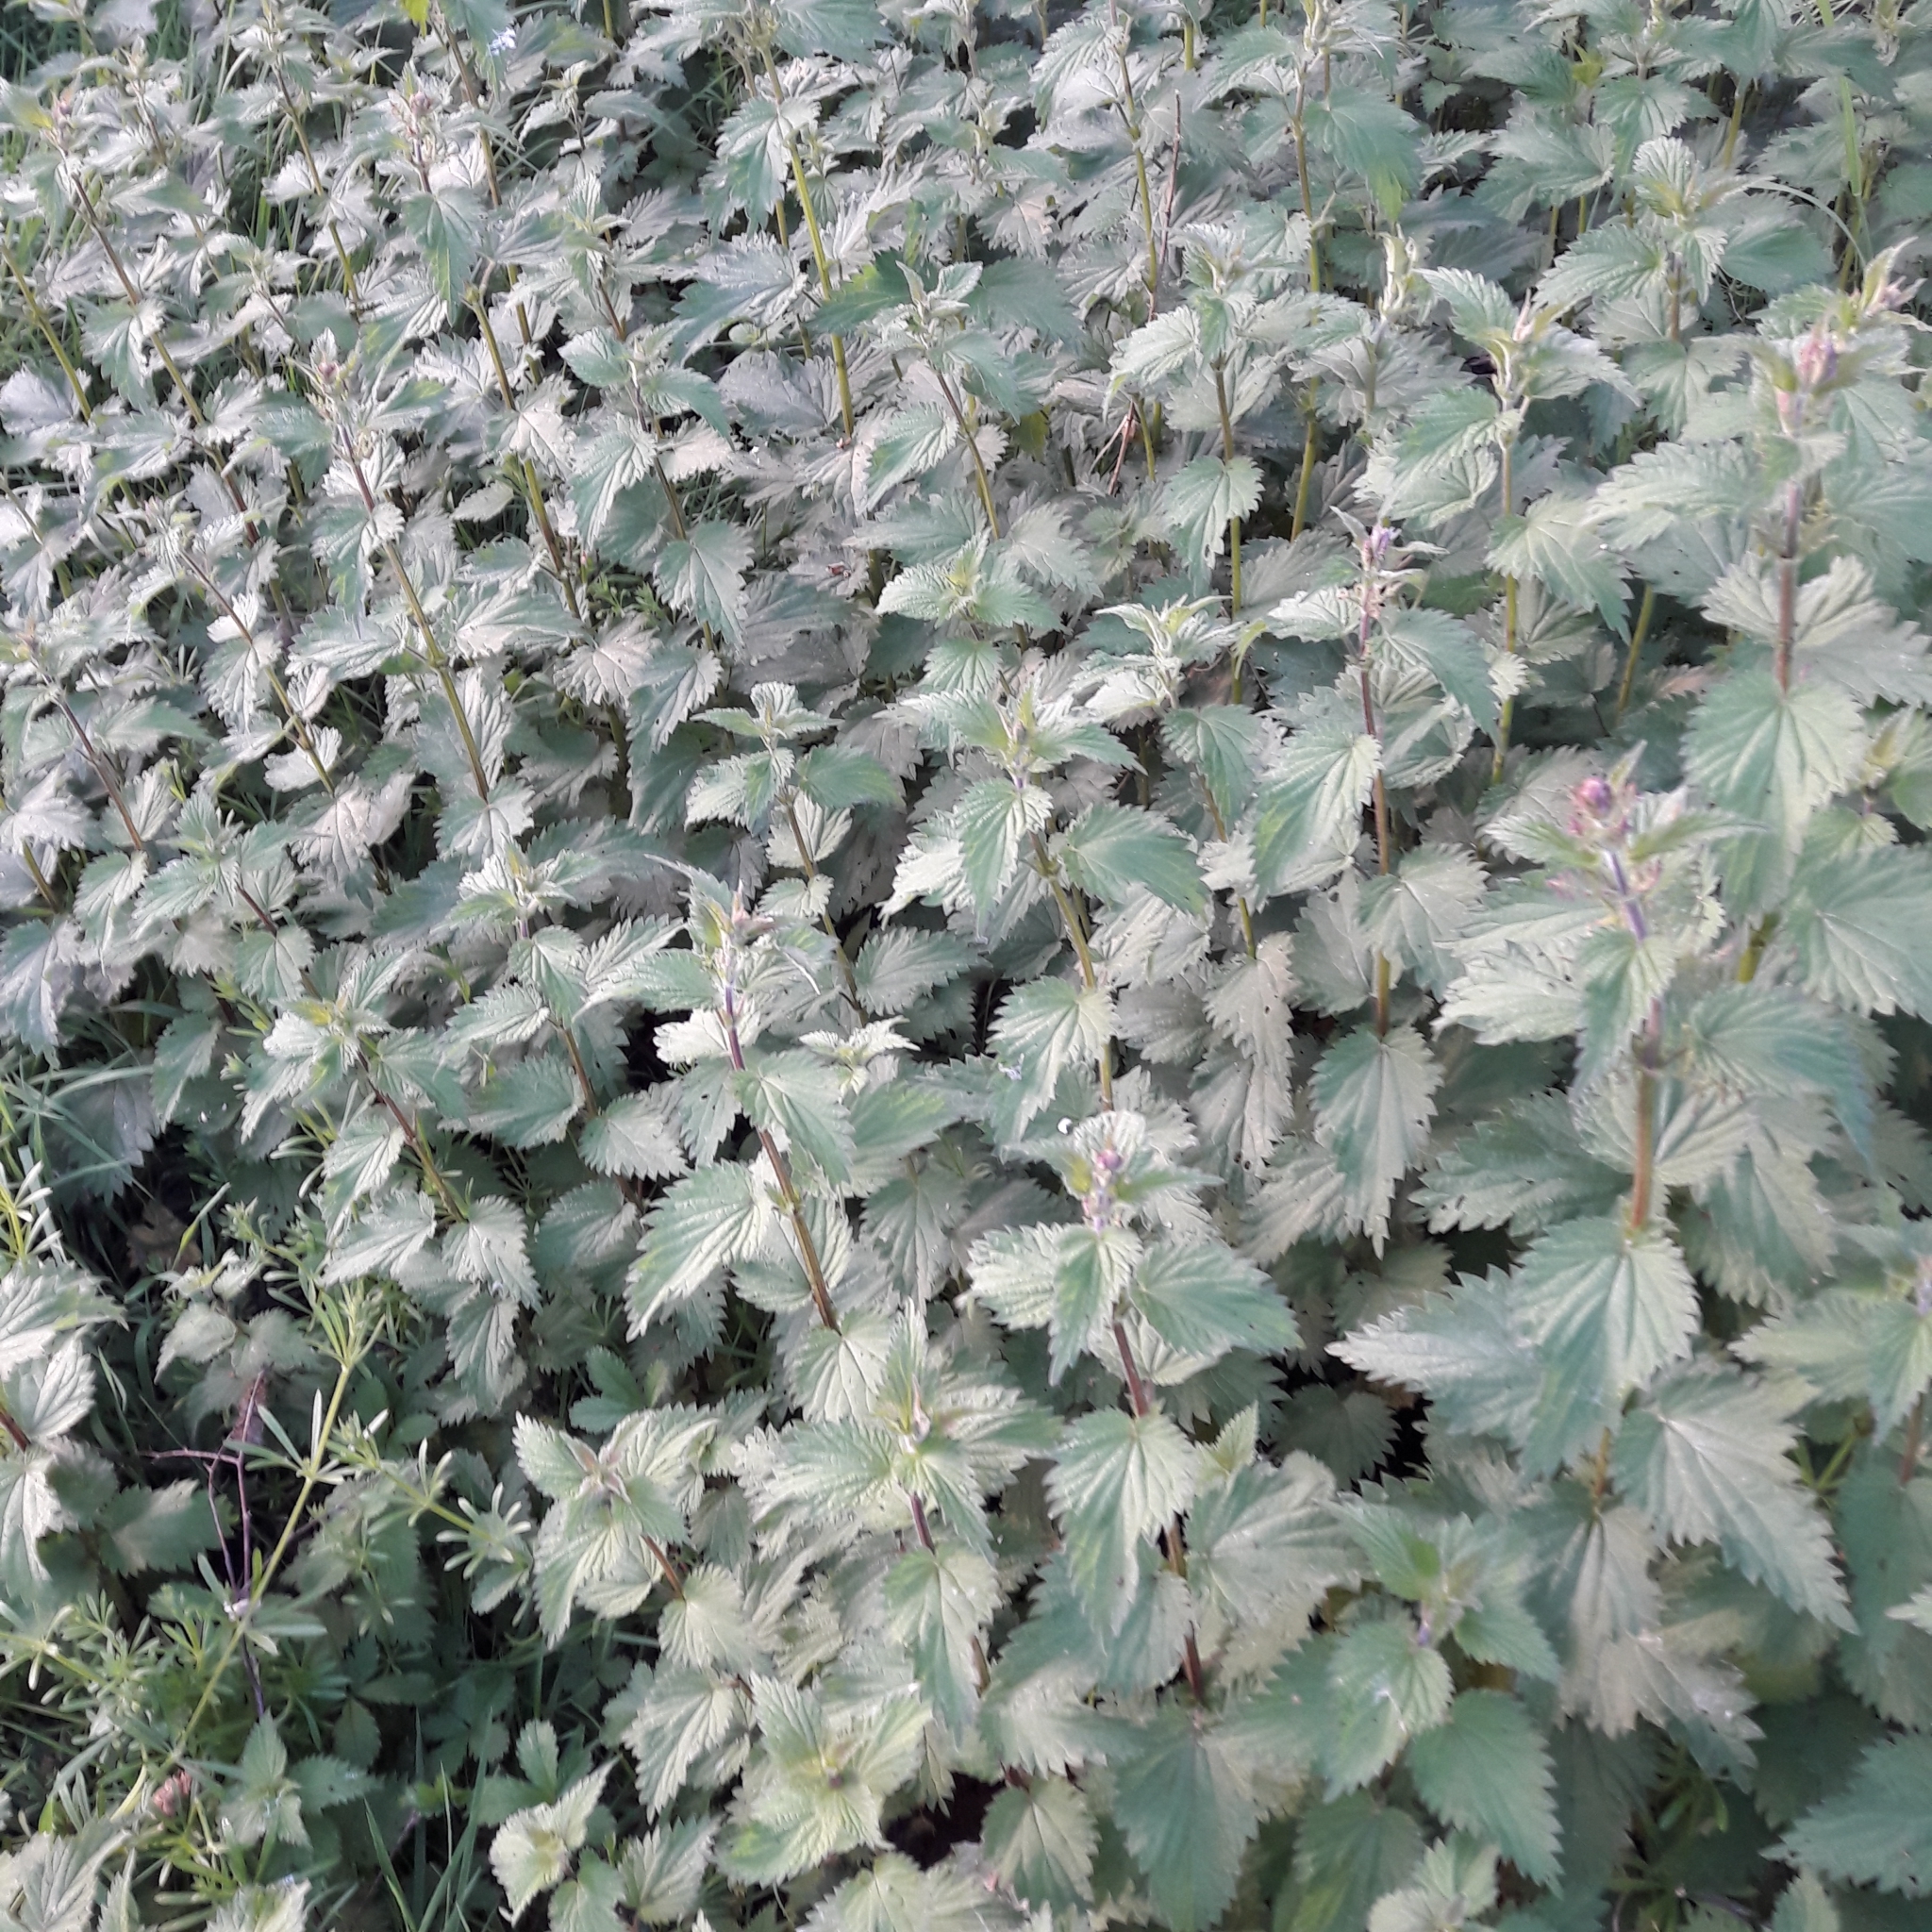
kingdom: Plantae
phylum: Tracheophyta
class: Magnoliopsida
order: Rosales
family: Urticaceae
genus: Urtica
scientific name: Urtica dioica
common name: Common nettle
